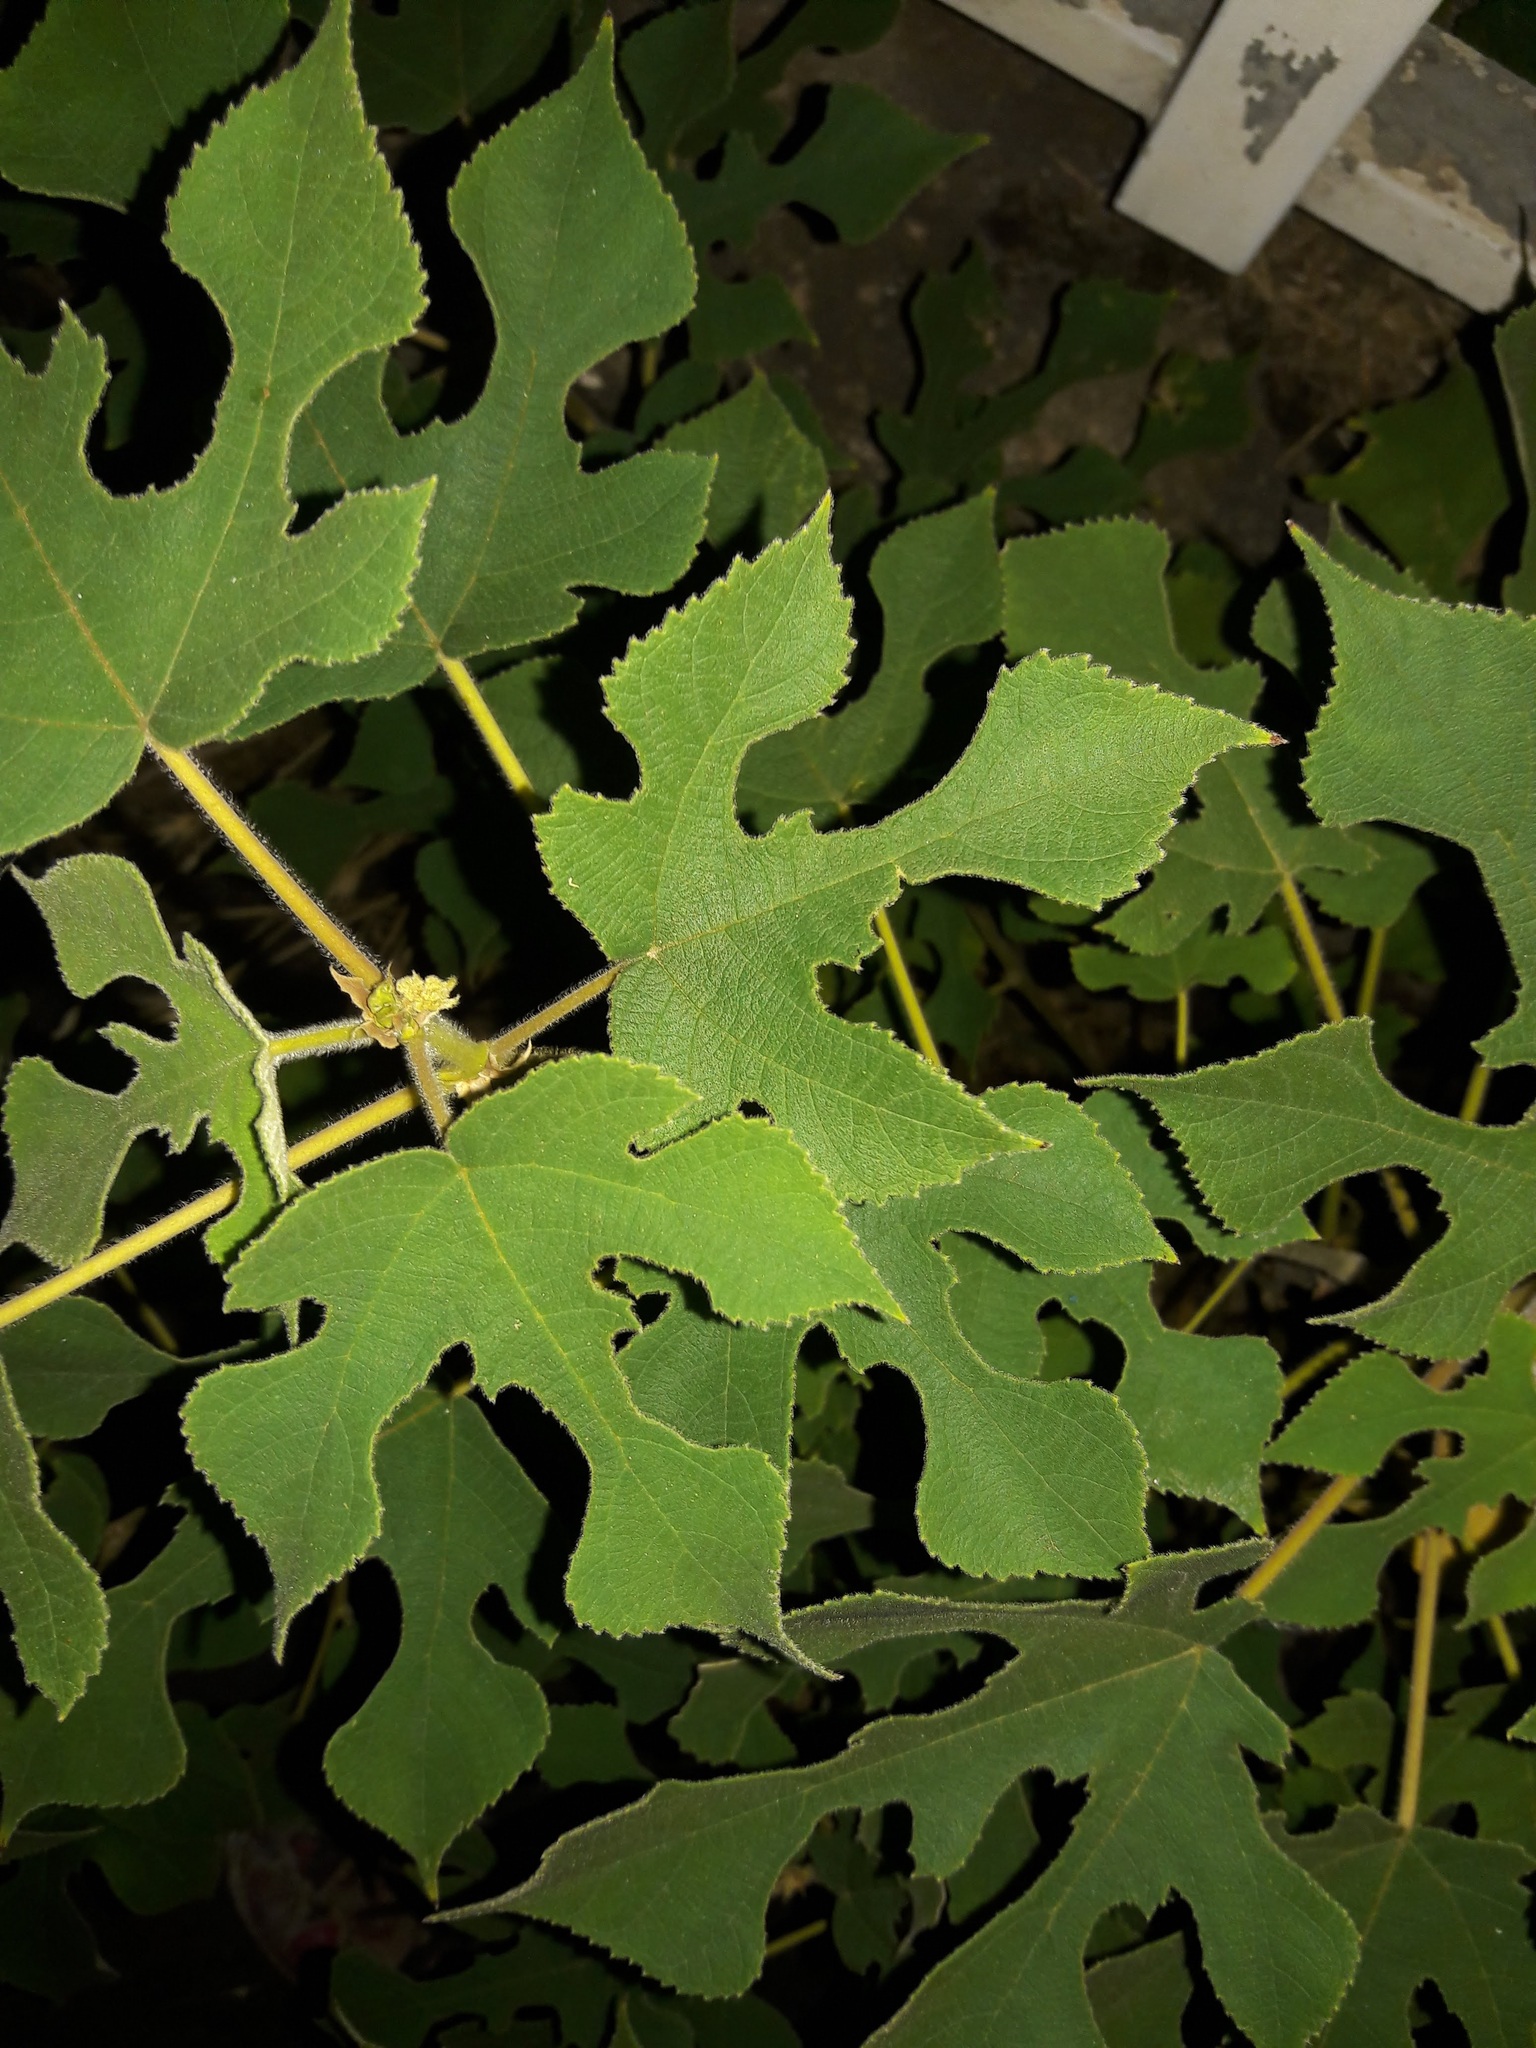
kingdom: Plantae
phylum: Tracheophyta
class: Magnoliopsida
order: Rosales
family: Moraceae
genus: Broussonetia
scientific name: Broussonetia papyrifera
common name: Paper mulberry
